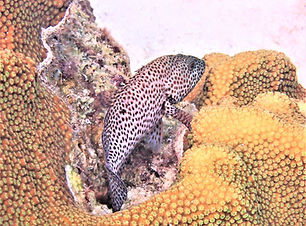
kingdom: Animalia
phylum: Chordata
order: Perciformes
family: Serranidae
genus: Cephalopholis
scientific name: Cephalopholis cruentata
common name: Graysby
